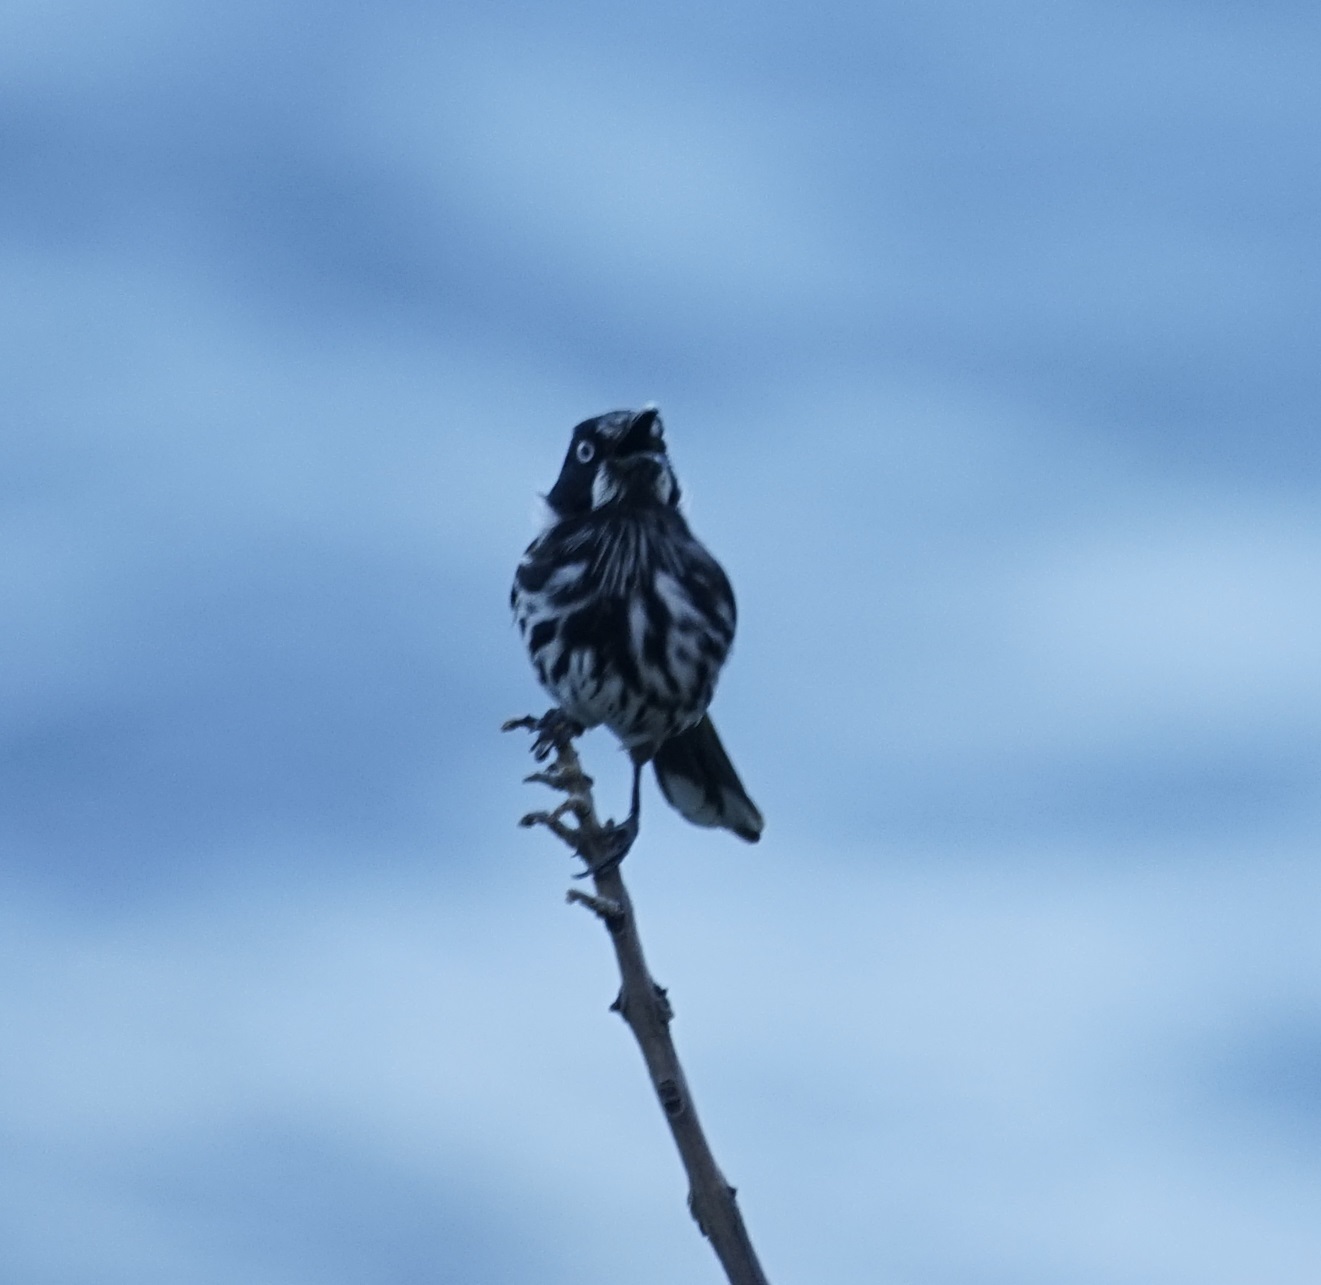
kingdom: Animalia
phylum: Chordata
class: Aves
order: Passeriformes
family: Meliphagidae
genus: Phylidonyris
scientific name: Phylidonyris novaehollandiae
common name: New holland honeyeater
